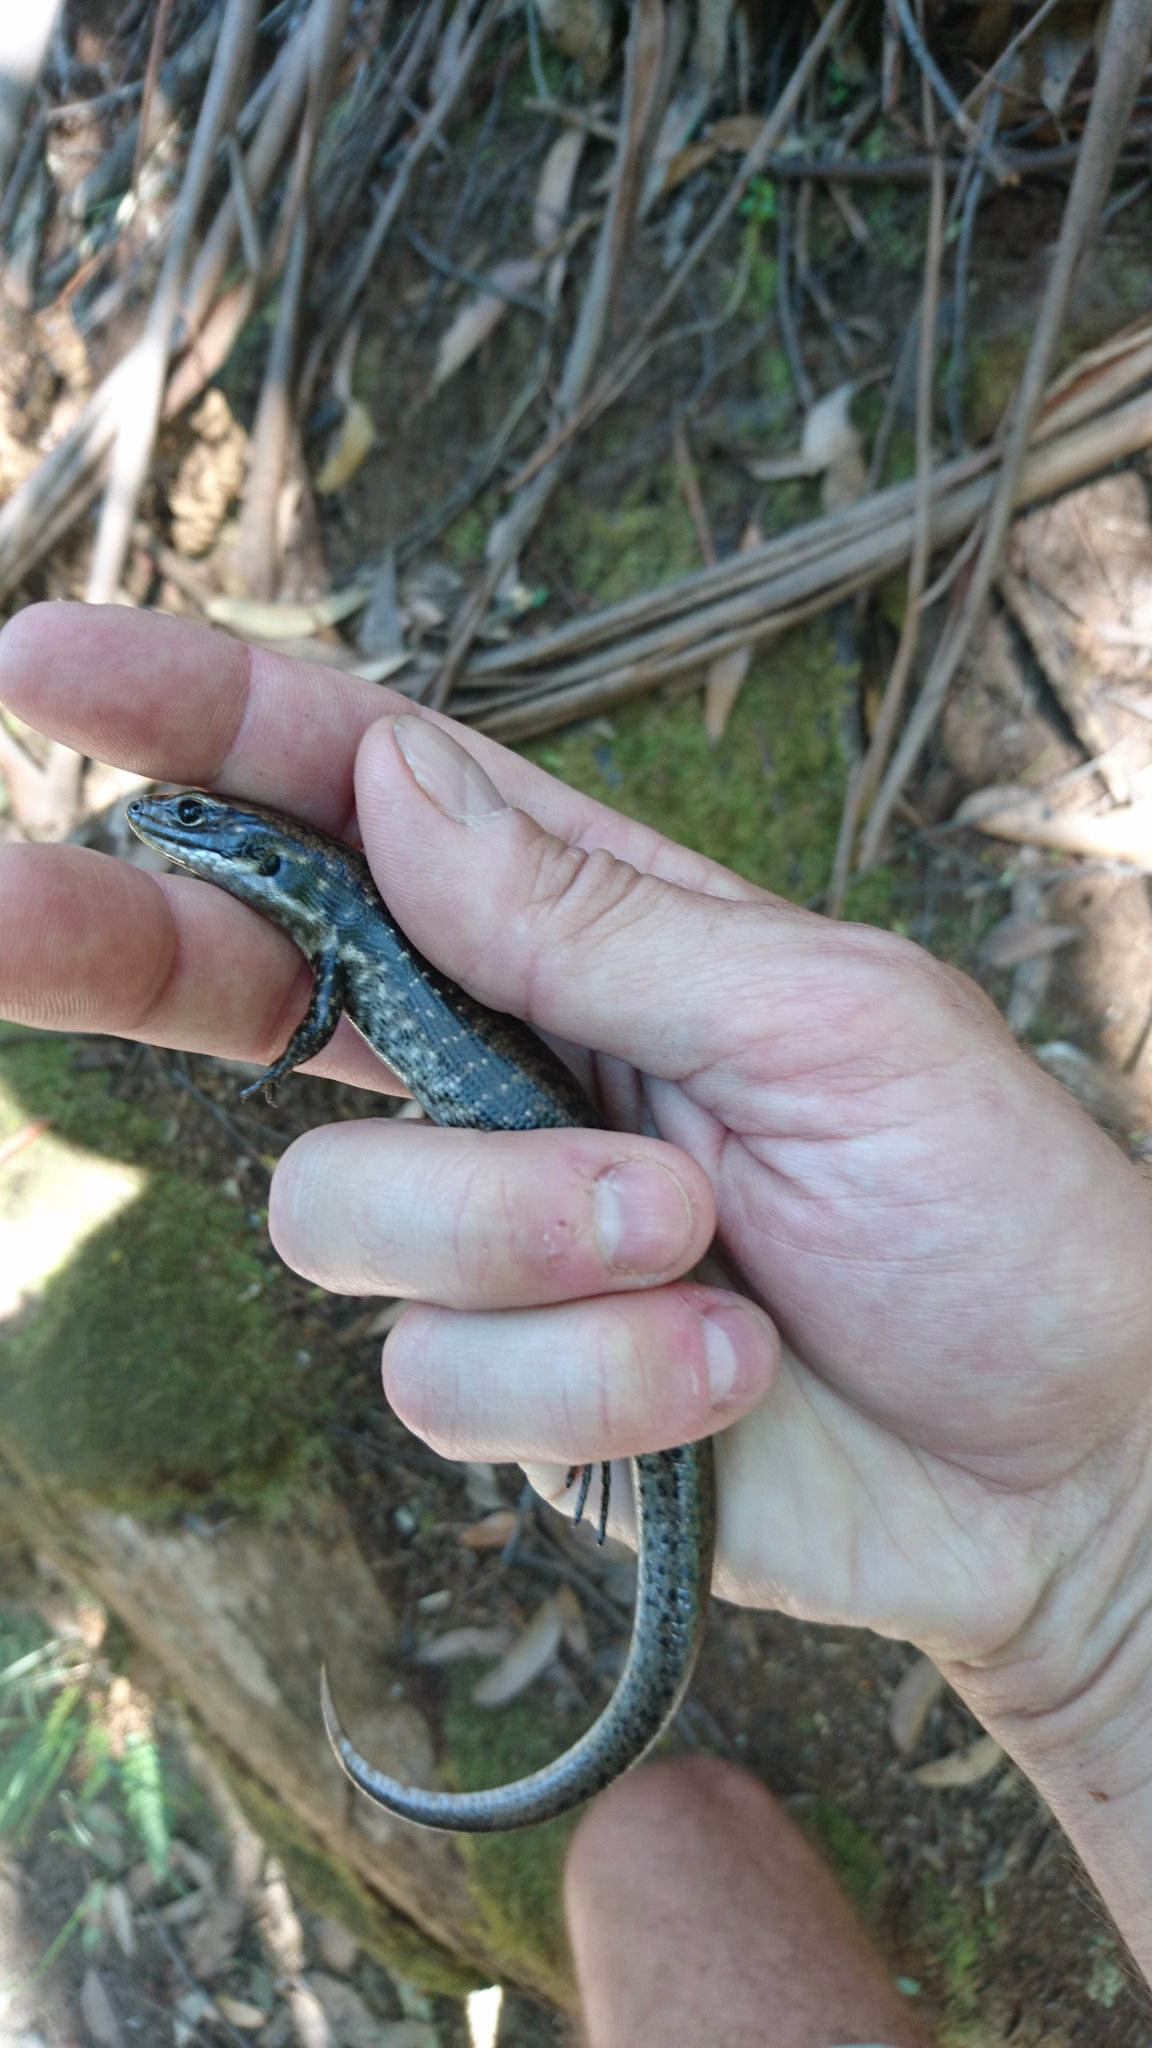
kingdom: Animalia
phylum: Chordata
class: Squamata
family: Scincidae
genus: Eulamprus
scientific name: Eulamprus tympanum
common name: Cool-temperate water-skink
